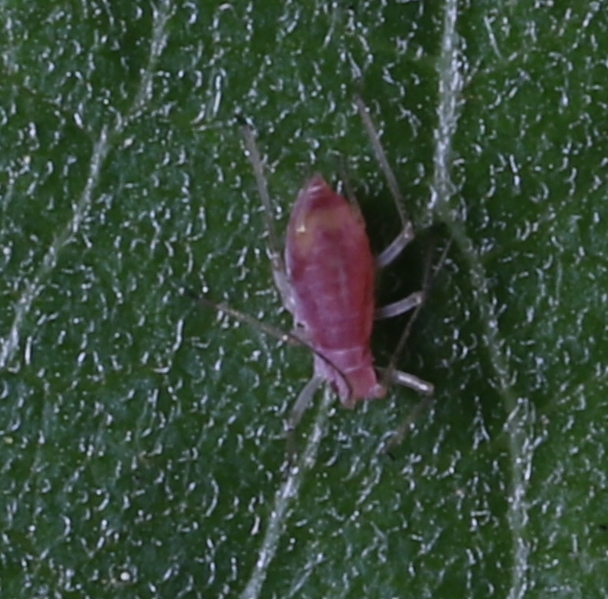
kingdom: Animalia
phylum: Arthropoda
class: Insecta
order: Hemiptera
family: Aphididae
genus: Macrosiphum
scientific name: Macrosiphum euphorbiae
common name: Potato aphid
